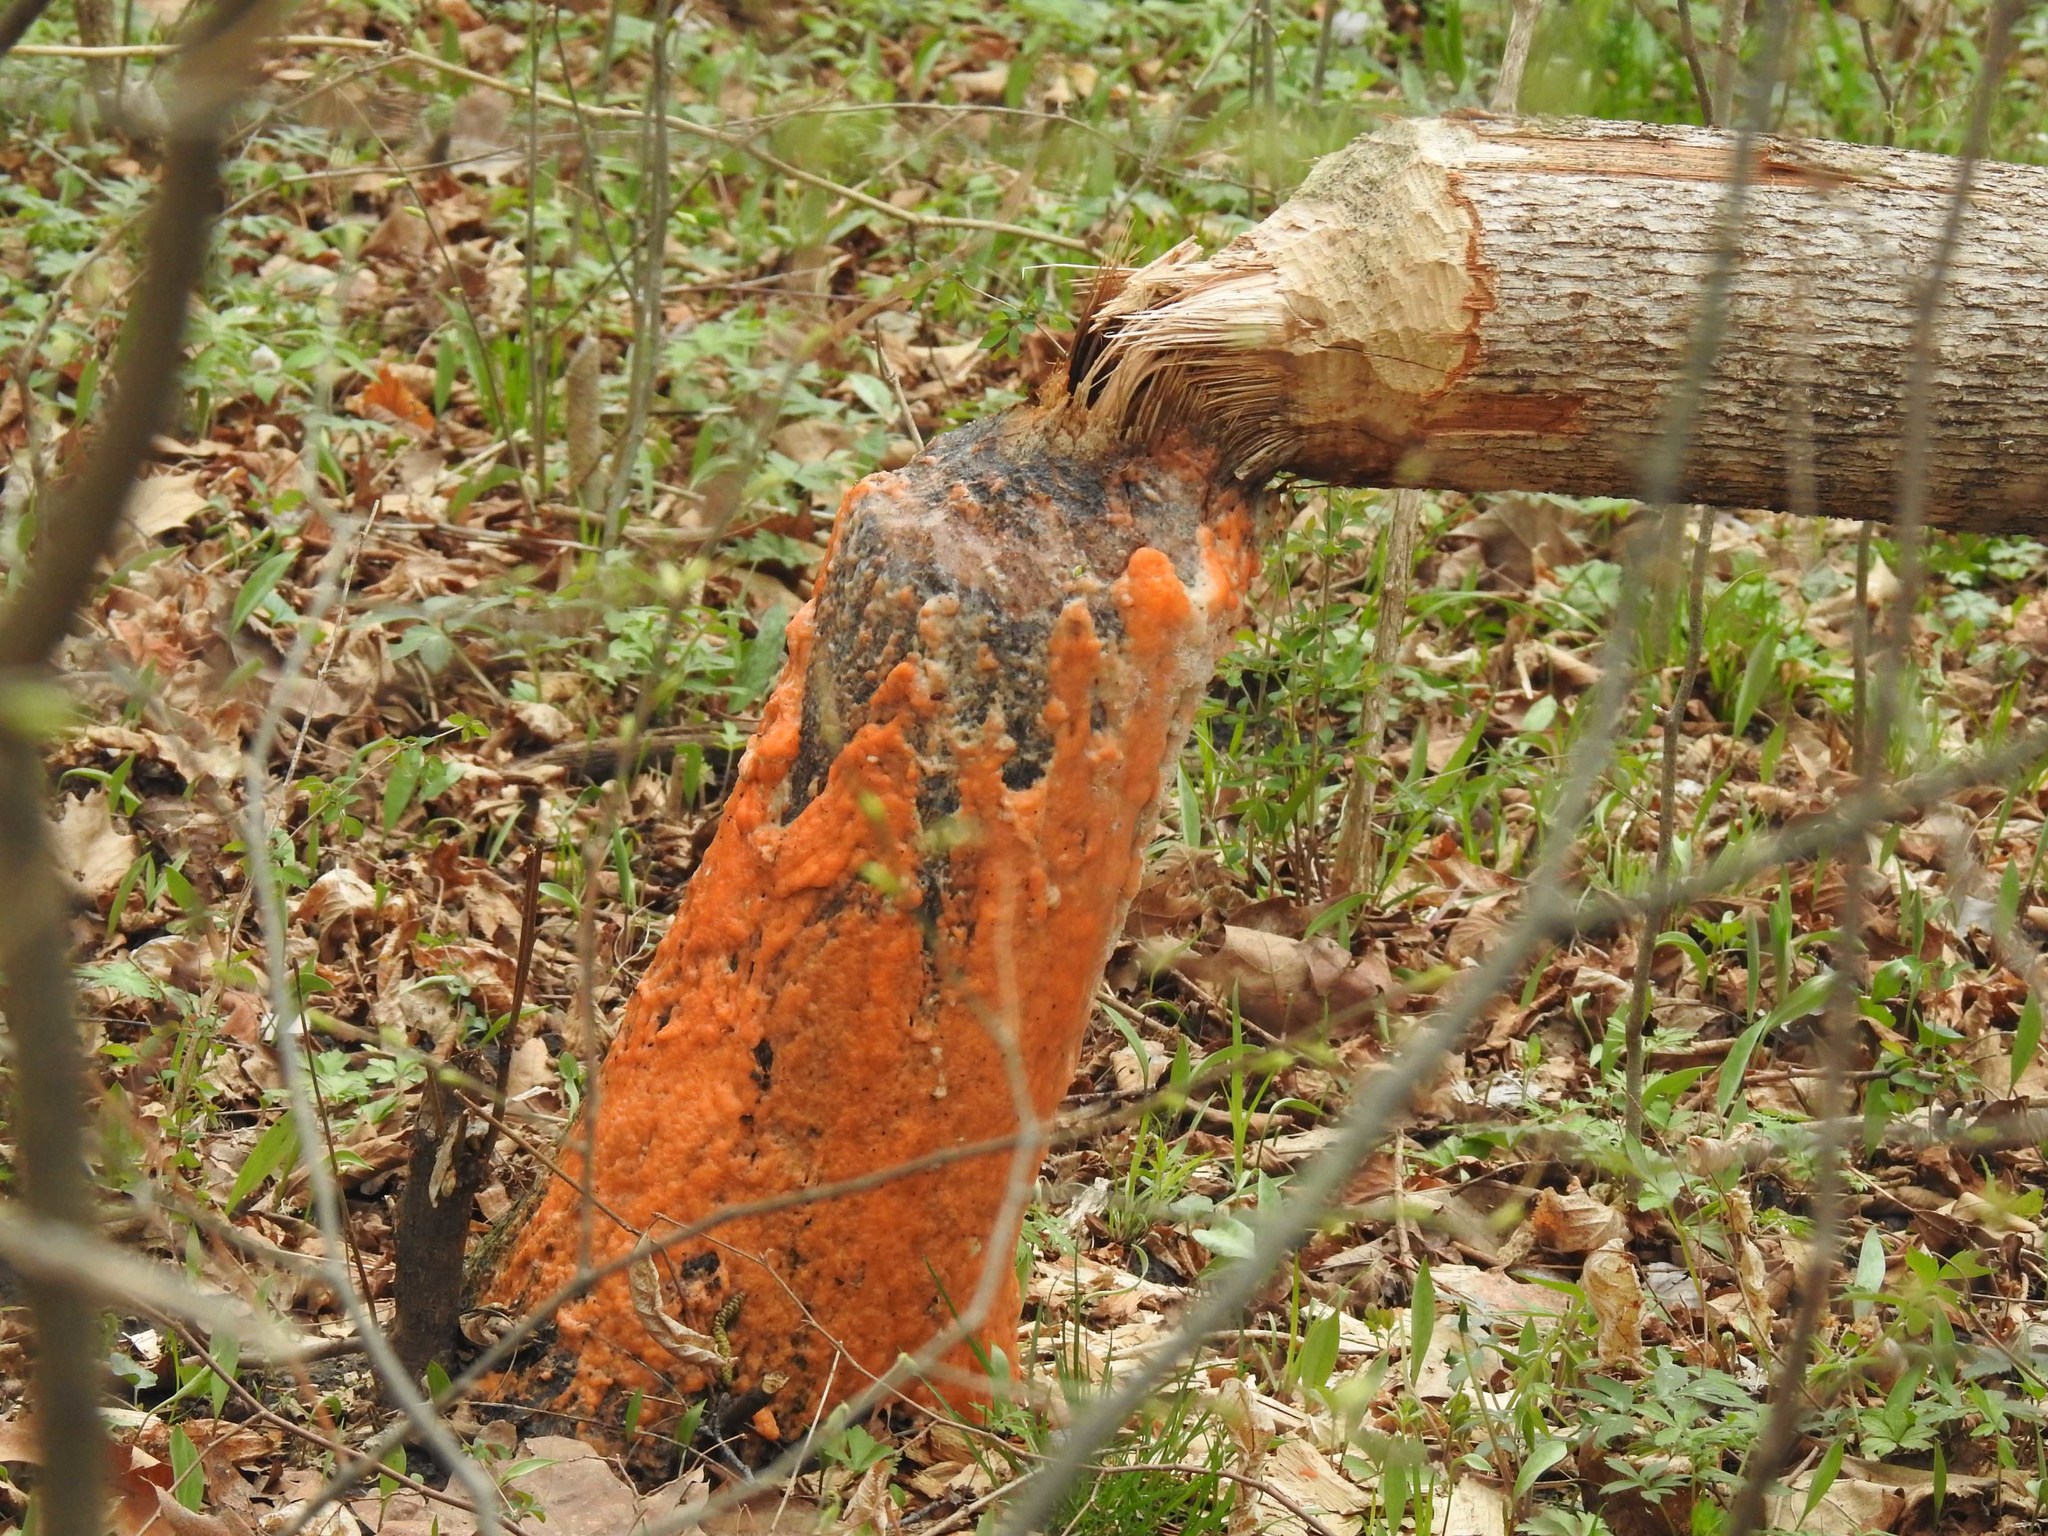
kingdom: Fungi
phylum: Ascomycota
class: Sordariomycetes
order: Hypocreales
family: Nectriaceae
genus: Fusicolla
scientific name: Fusicolla merismoides
